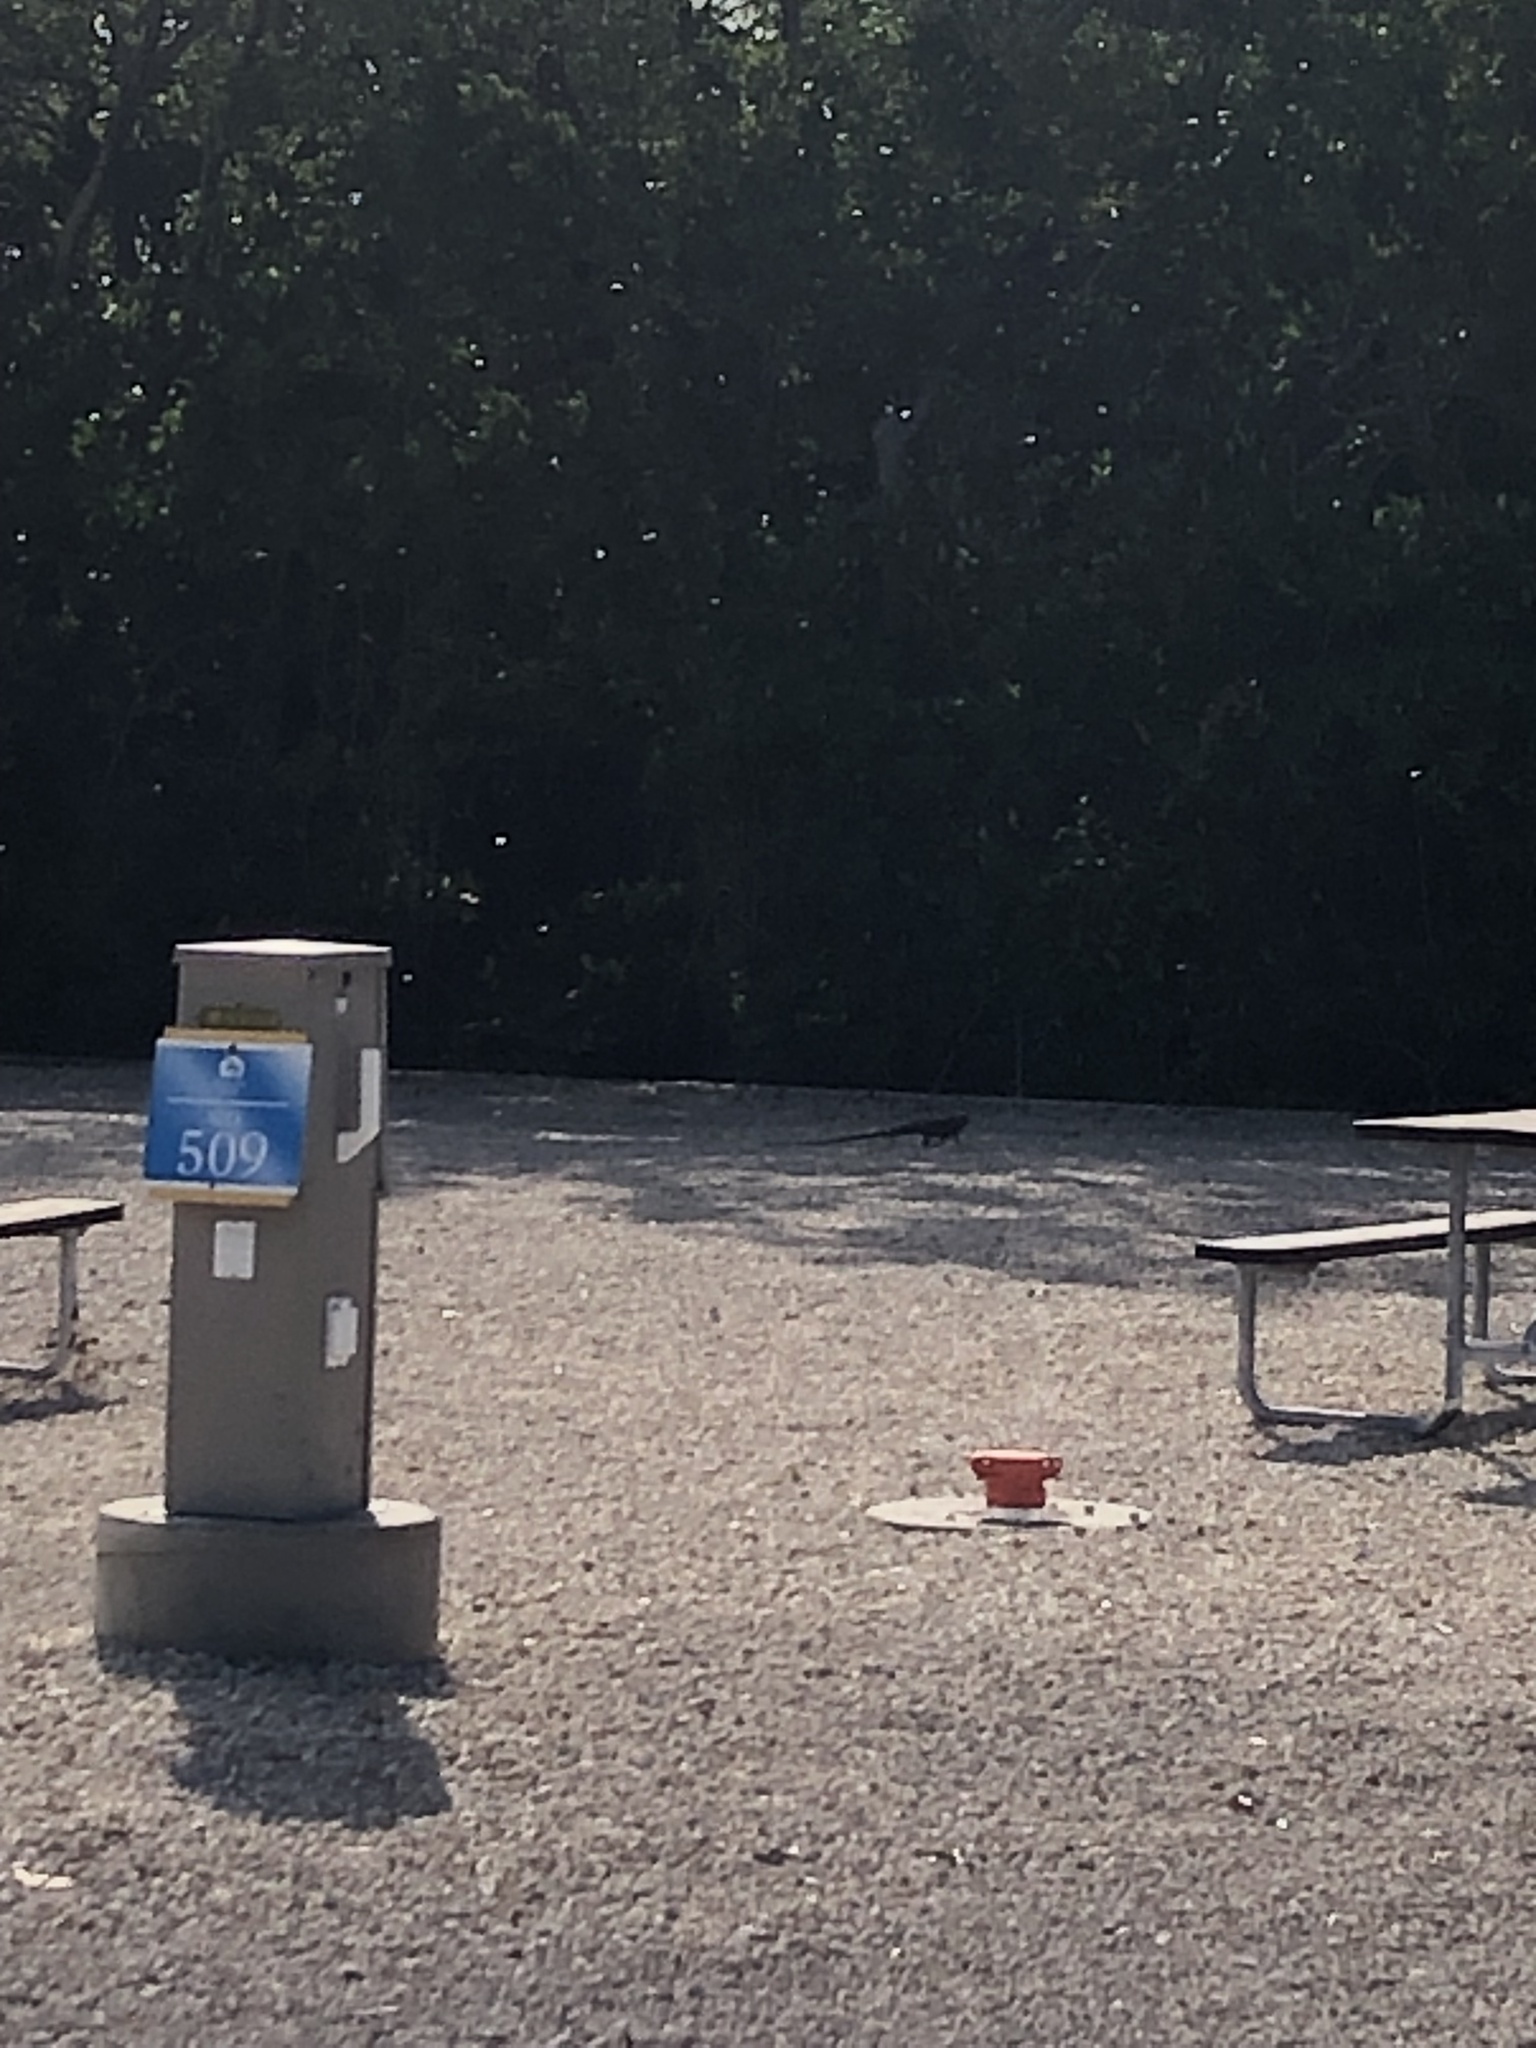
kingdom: Animalia
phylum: Chordata
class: Squamata
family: Iguanidae
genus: Iguana
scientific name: Iguana iguana
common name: Green iguana
